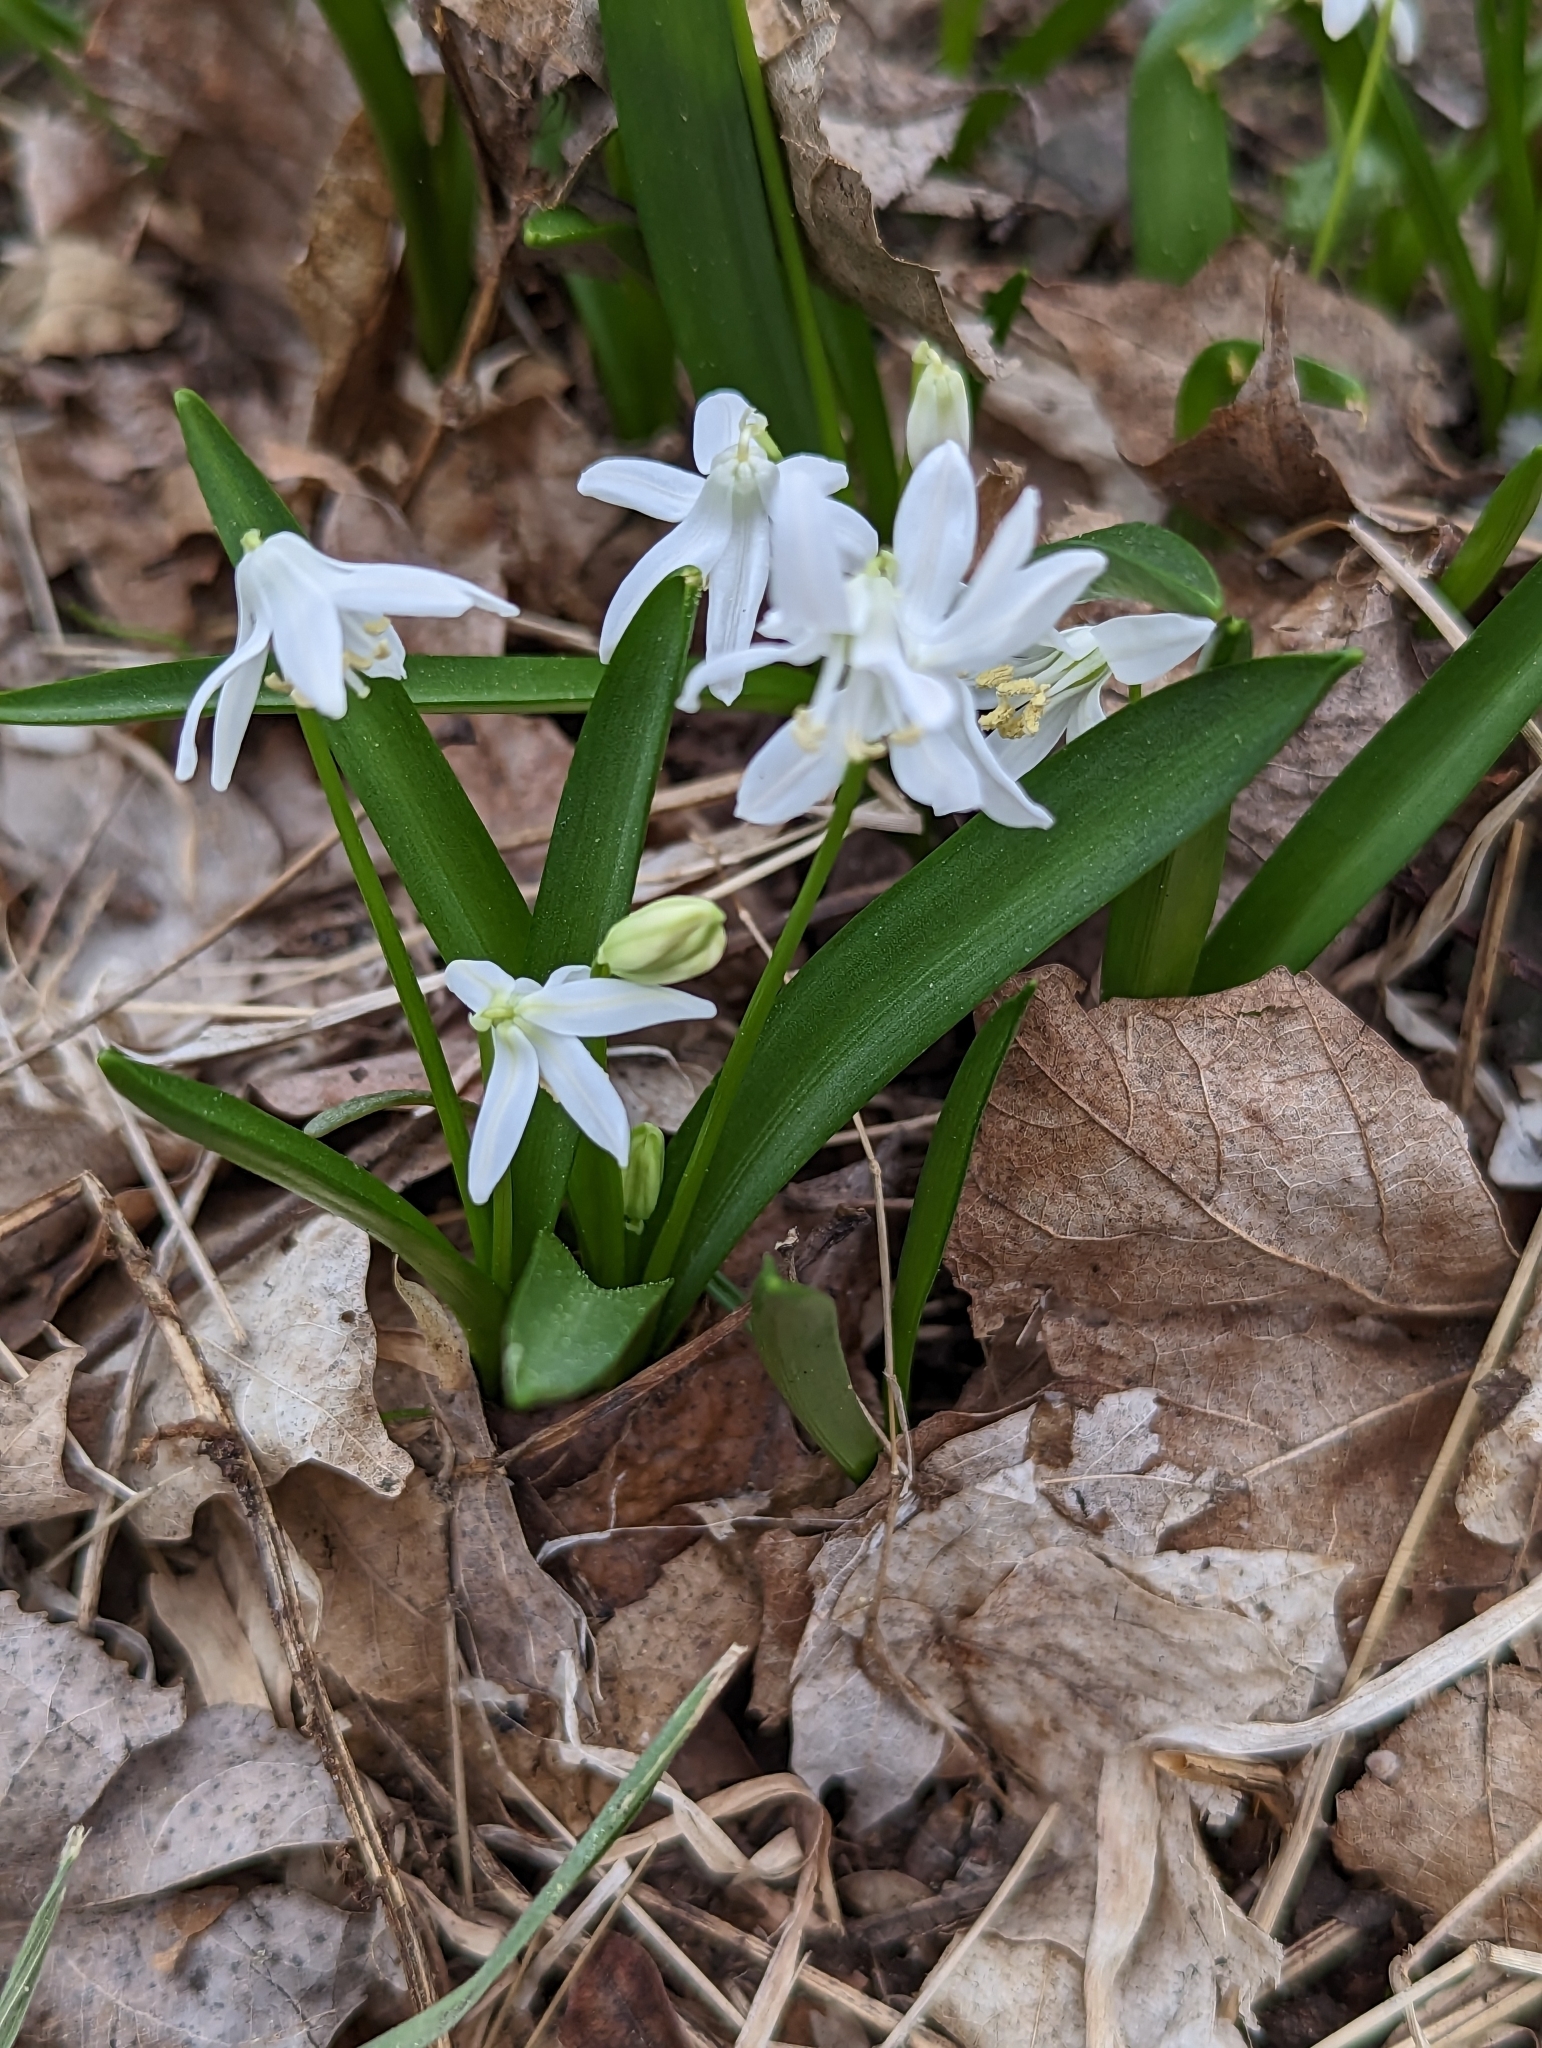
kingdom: Plantae
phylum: Tracheophyta
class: Liliopsida
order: Asparagales
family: Asparagaceae
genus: Scilla
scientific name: Scilla siberica
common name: Siberian squill
